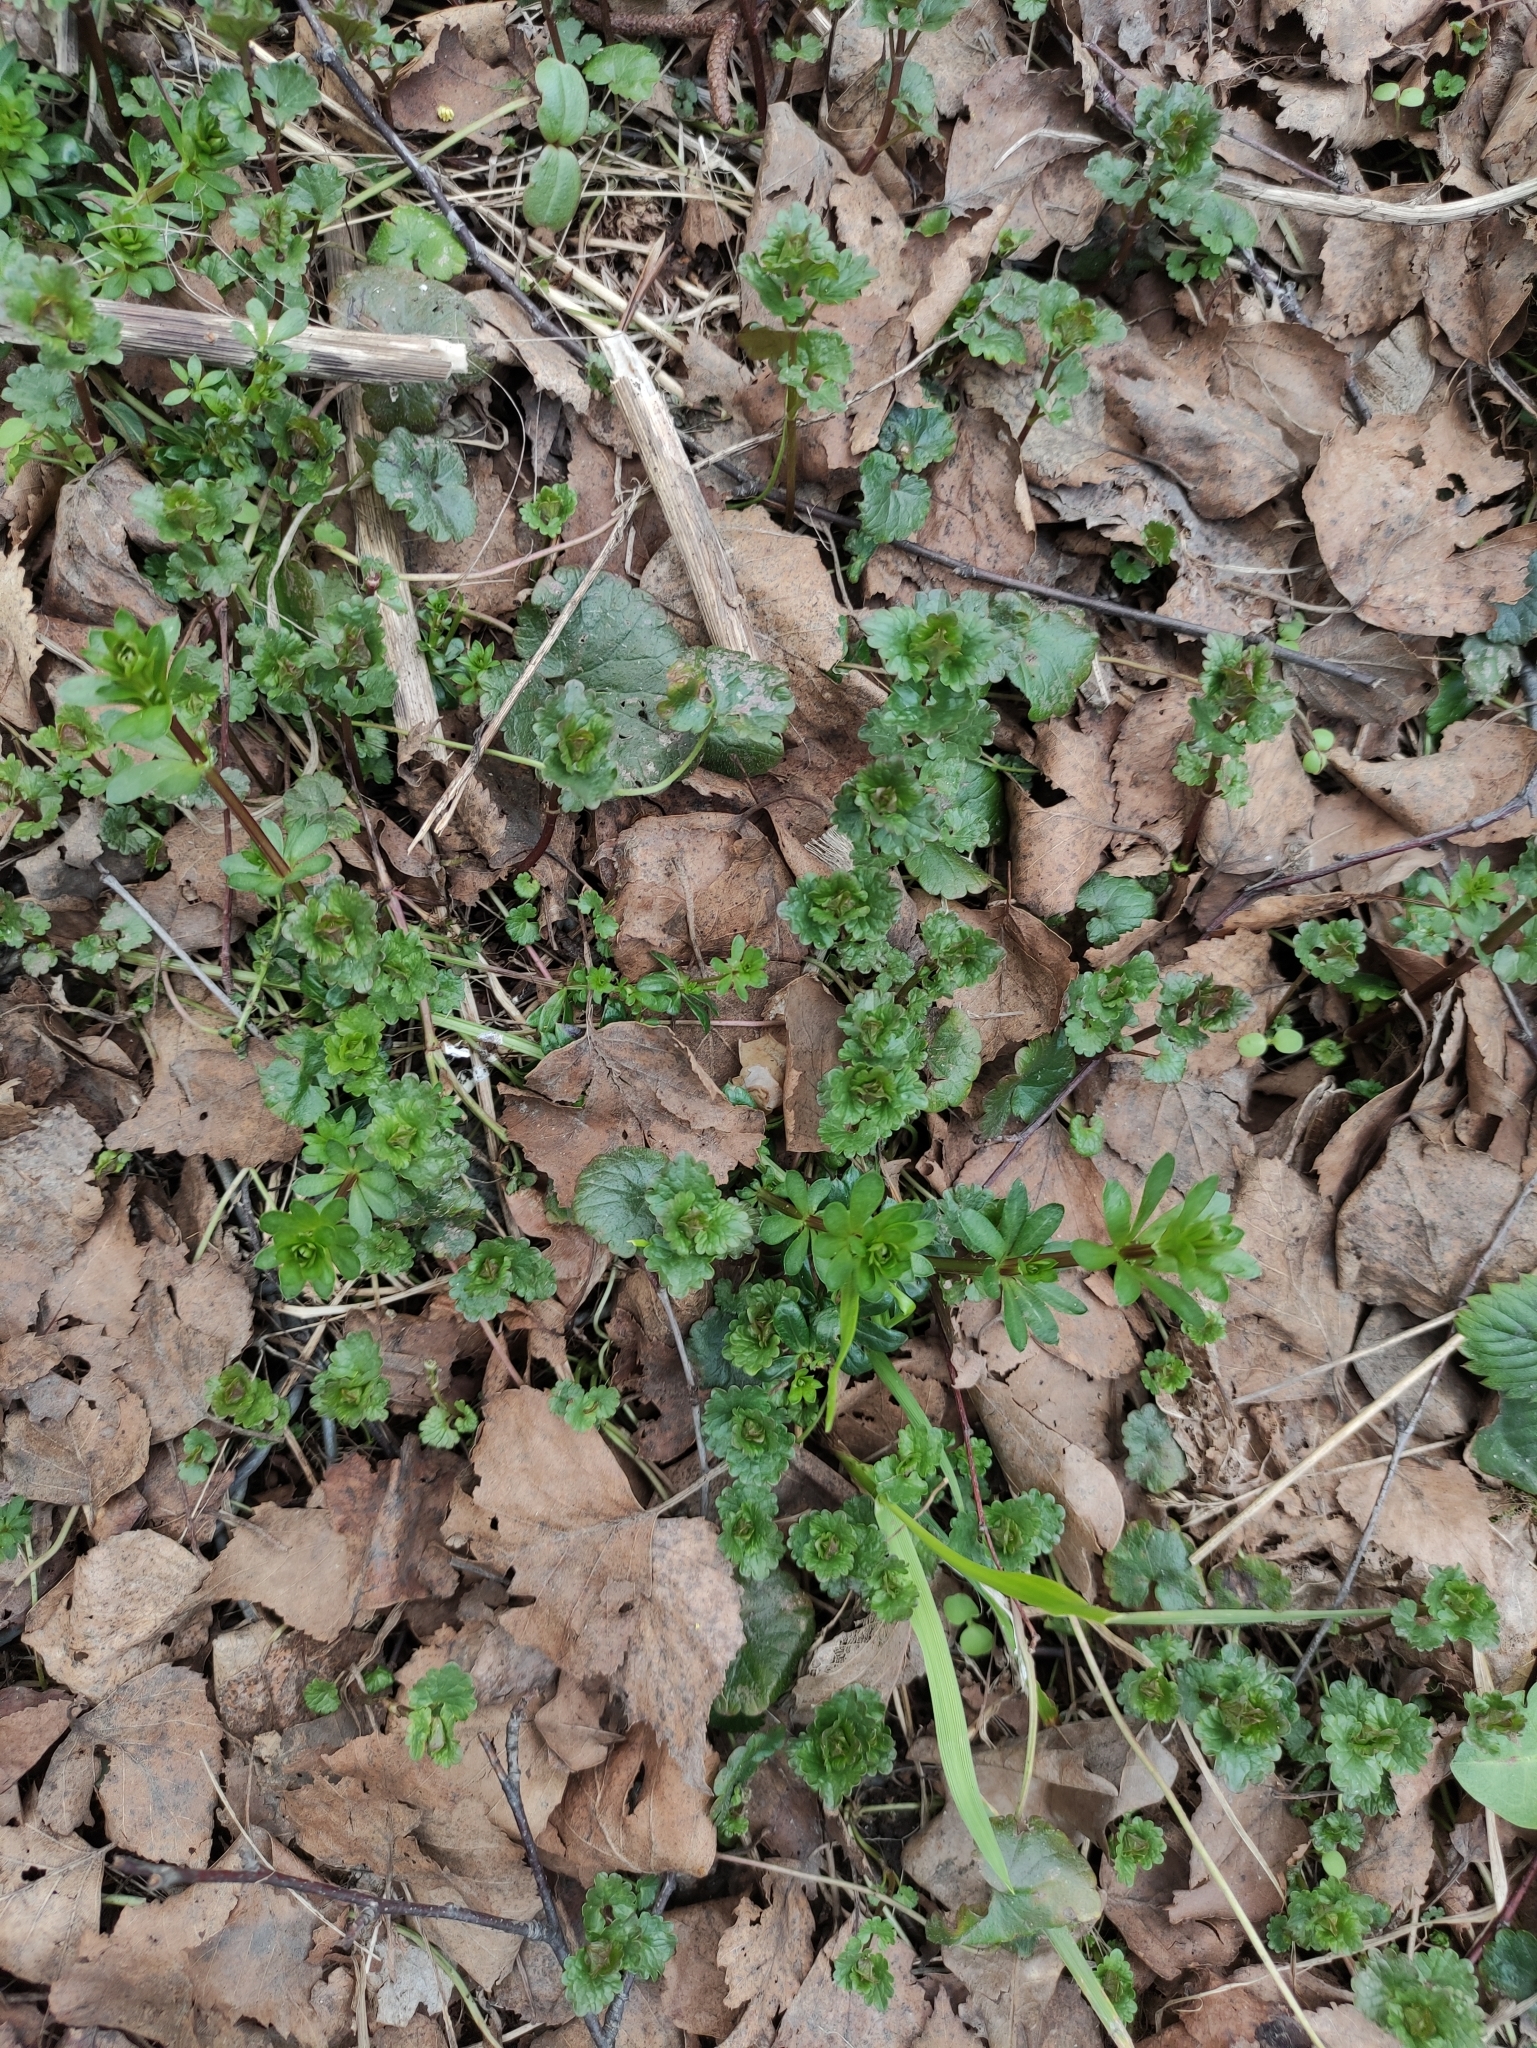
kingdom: Plantae
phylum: Tracheophyta
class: Magnoliopsida
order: Gentianales
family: Rubiaceae
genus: Galium
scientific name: Galium mollugo
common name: Hedge bedstraw
